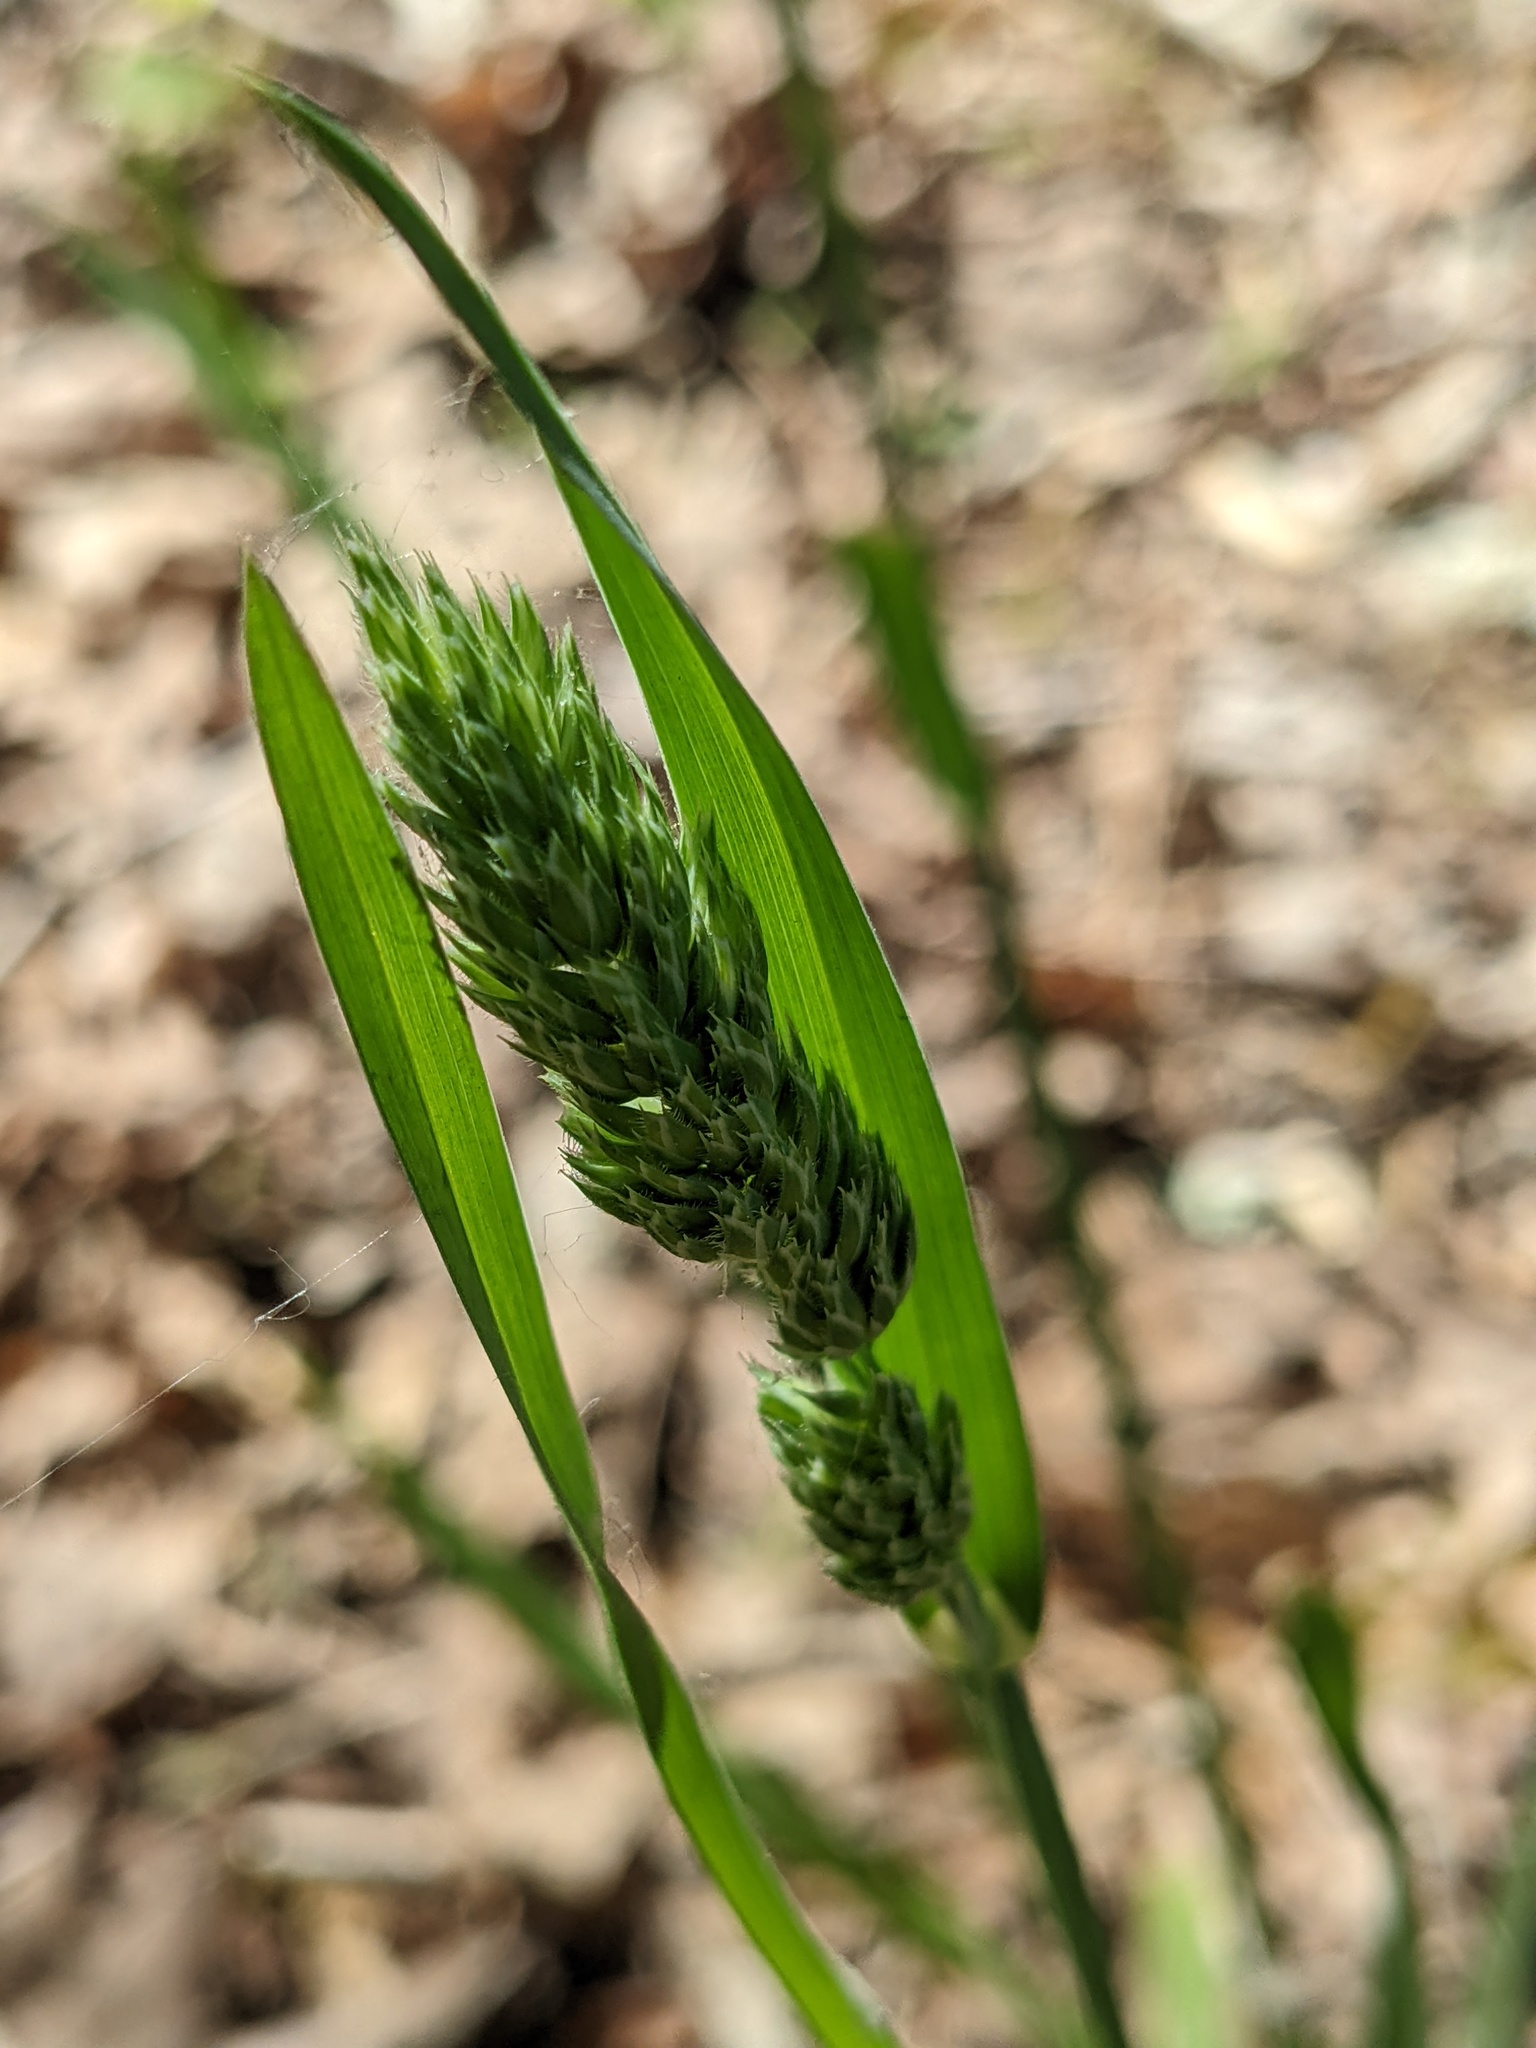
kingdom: Plantae
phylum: Tracheophyta
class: Liliopsida
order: Poales
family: Poaceae
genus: Dactylis
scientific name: Dactylis glomerata
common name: Orchardgrass
